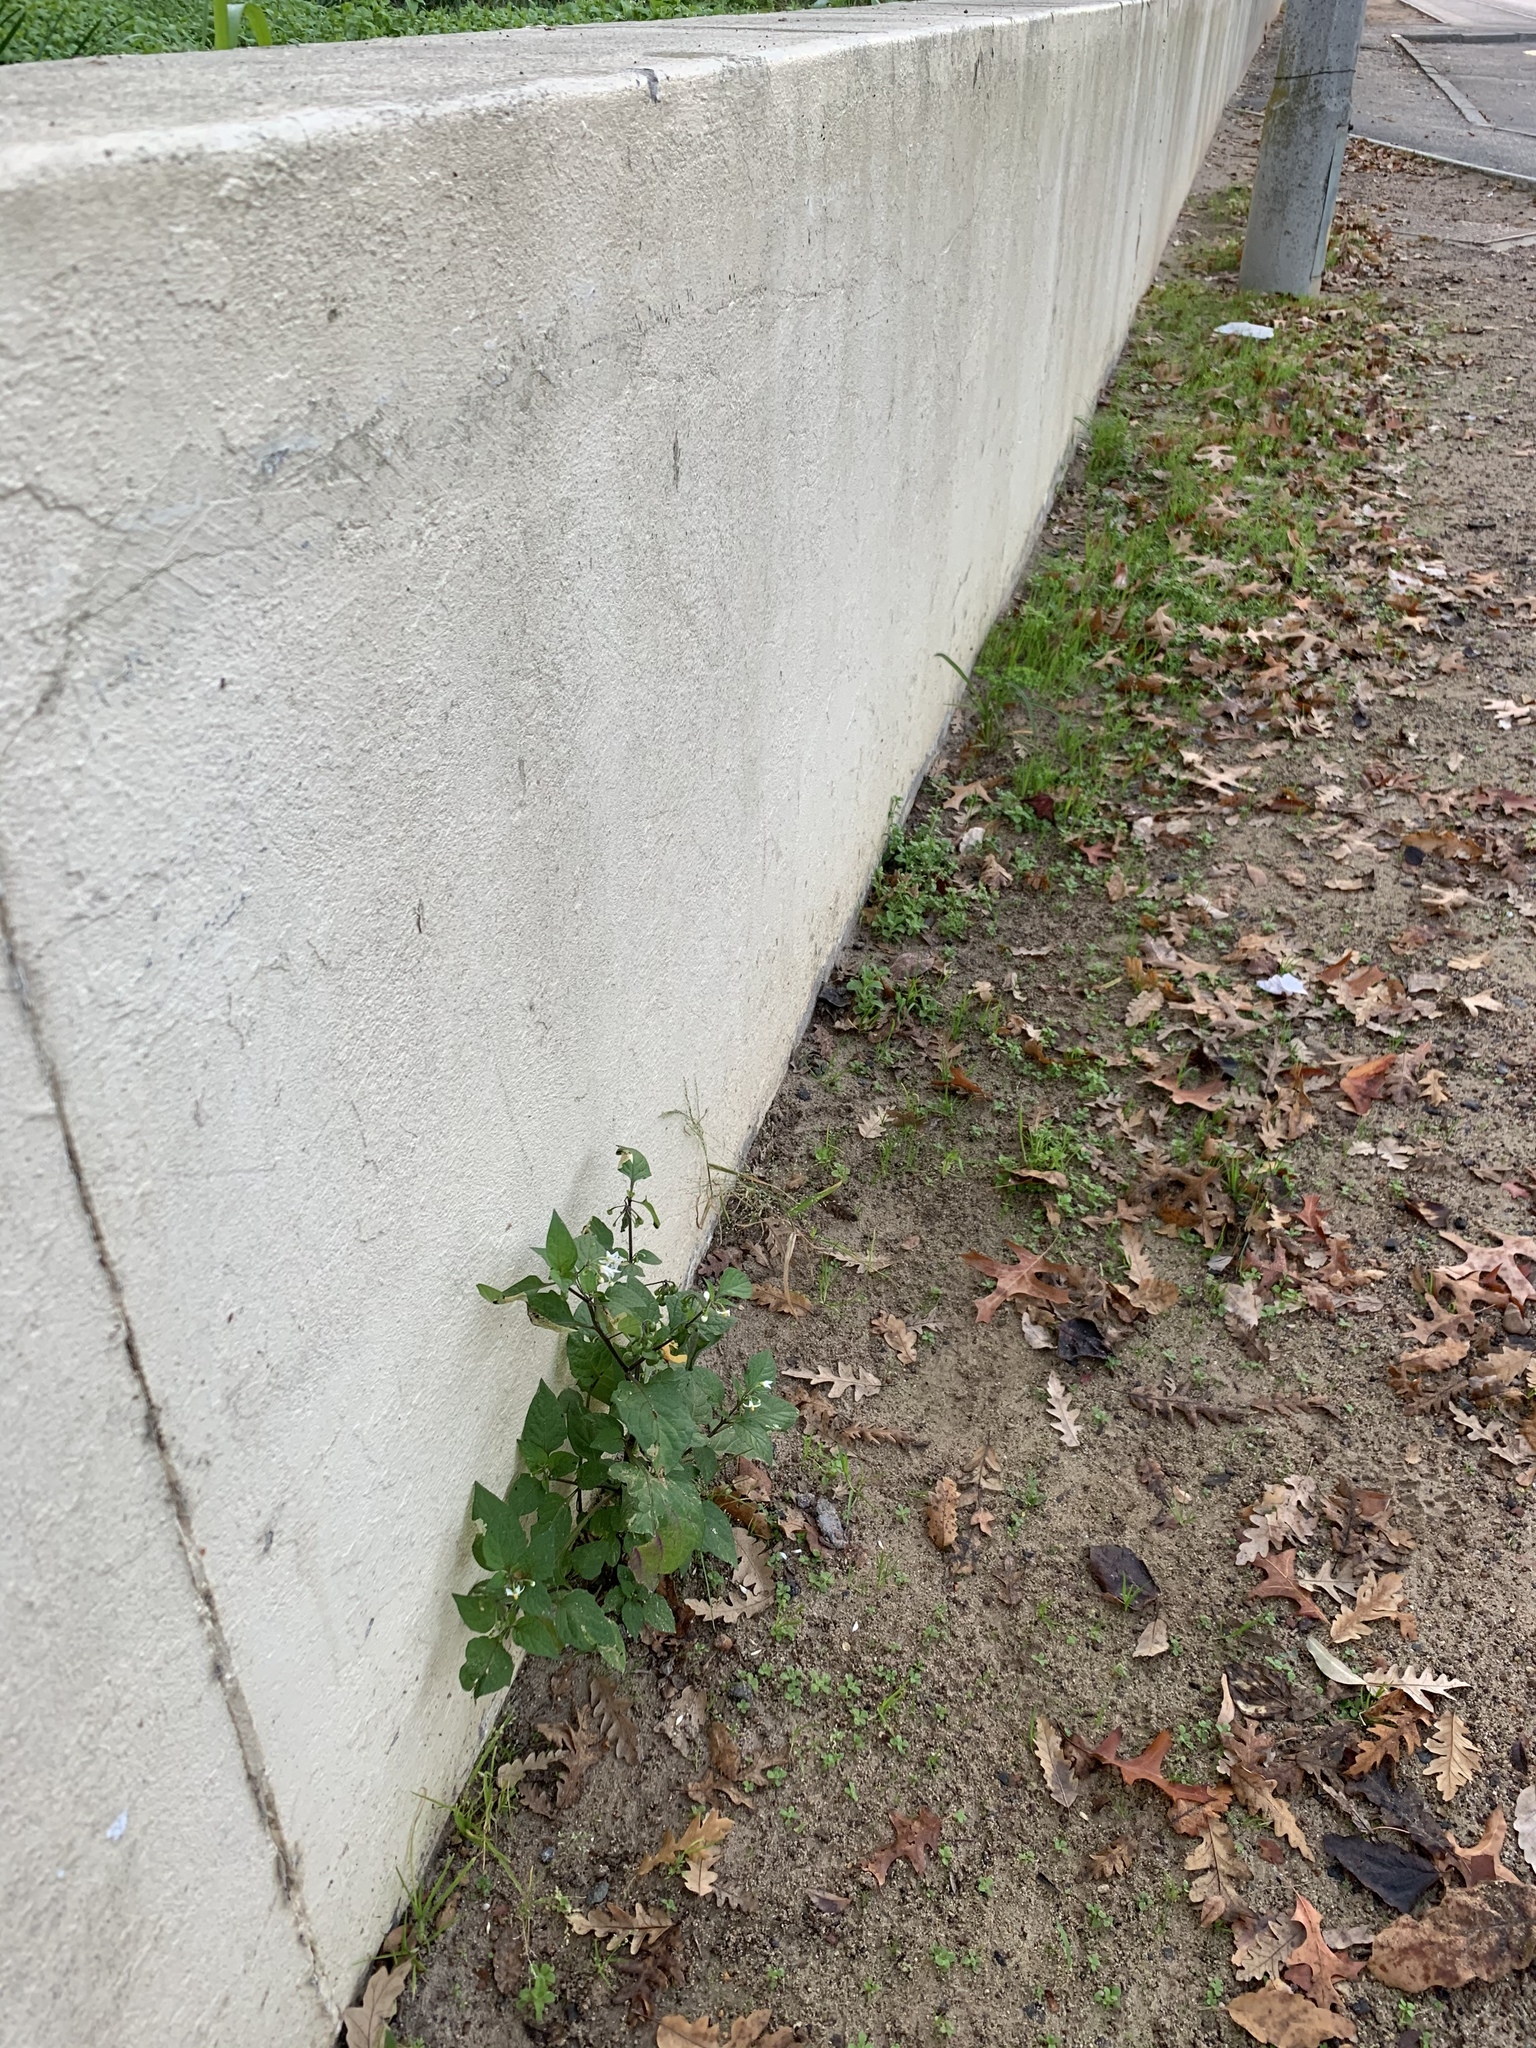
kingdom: Plantae
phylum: Tracheophyta
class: Magnoliopsida
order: Solanales
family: Solanaceae
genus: Solanum
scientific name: Solanum nigrum
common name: Black nightshade
